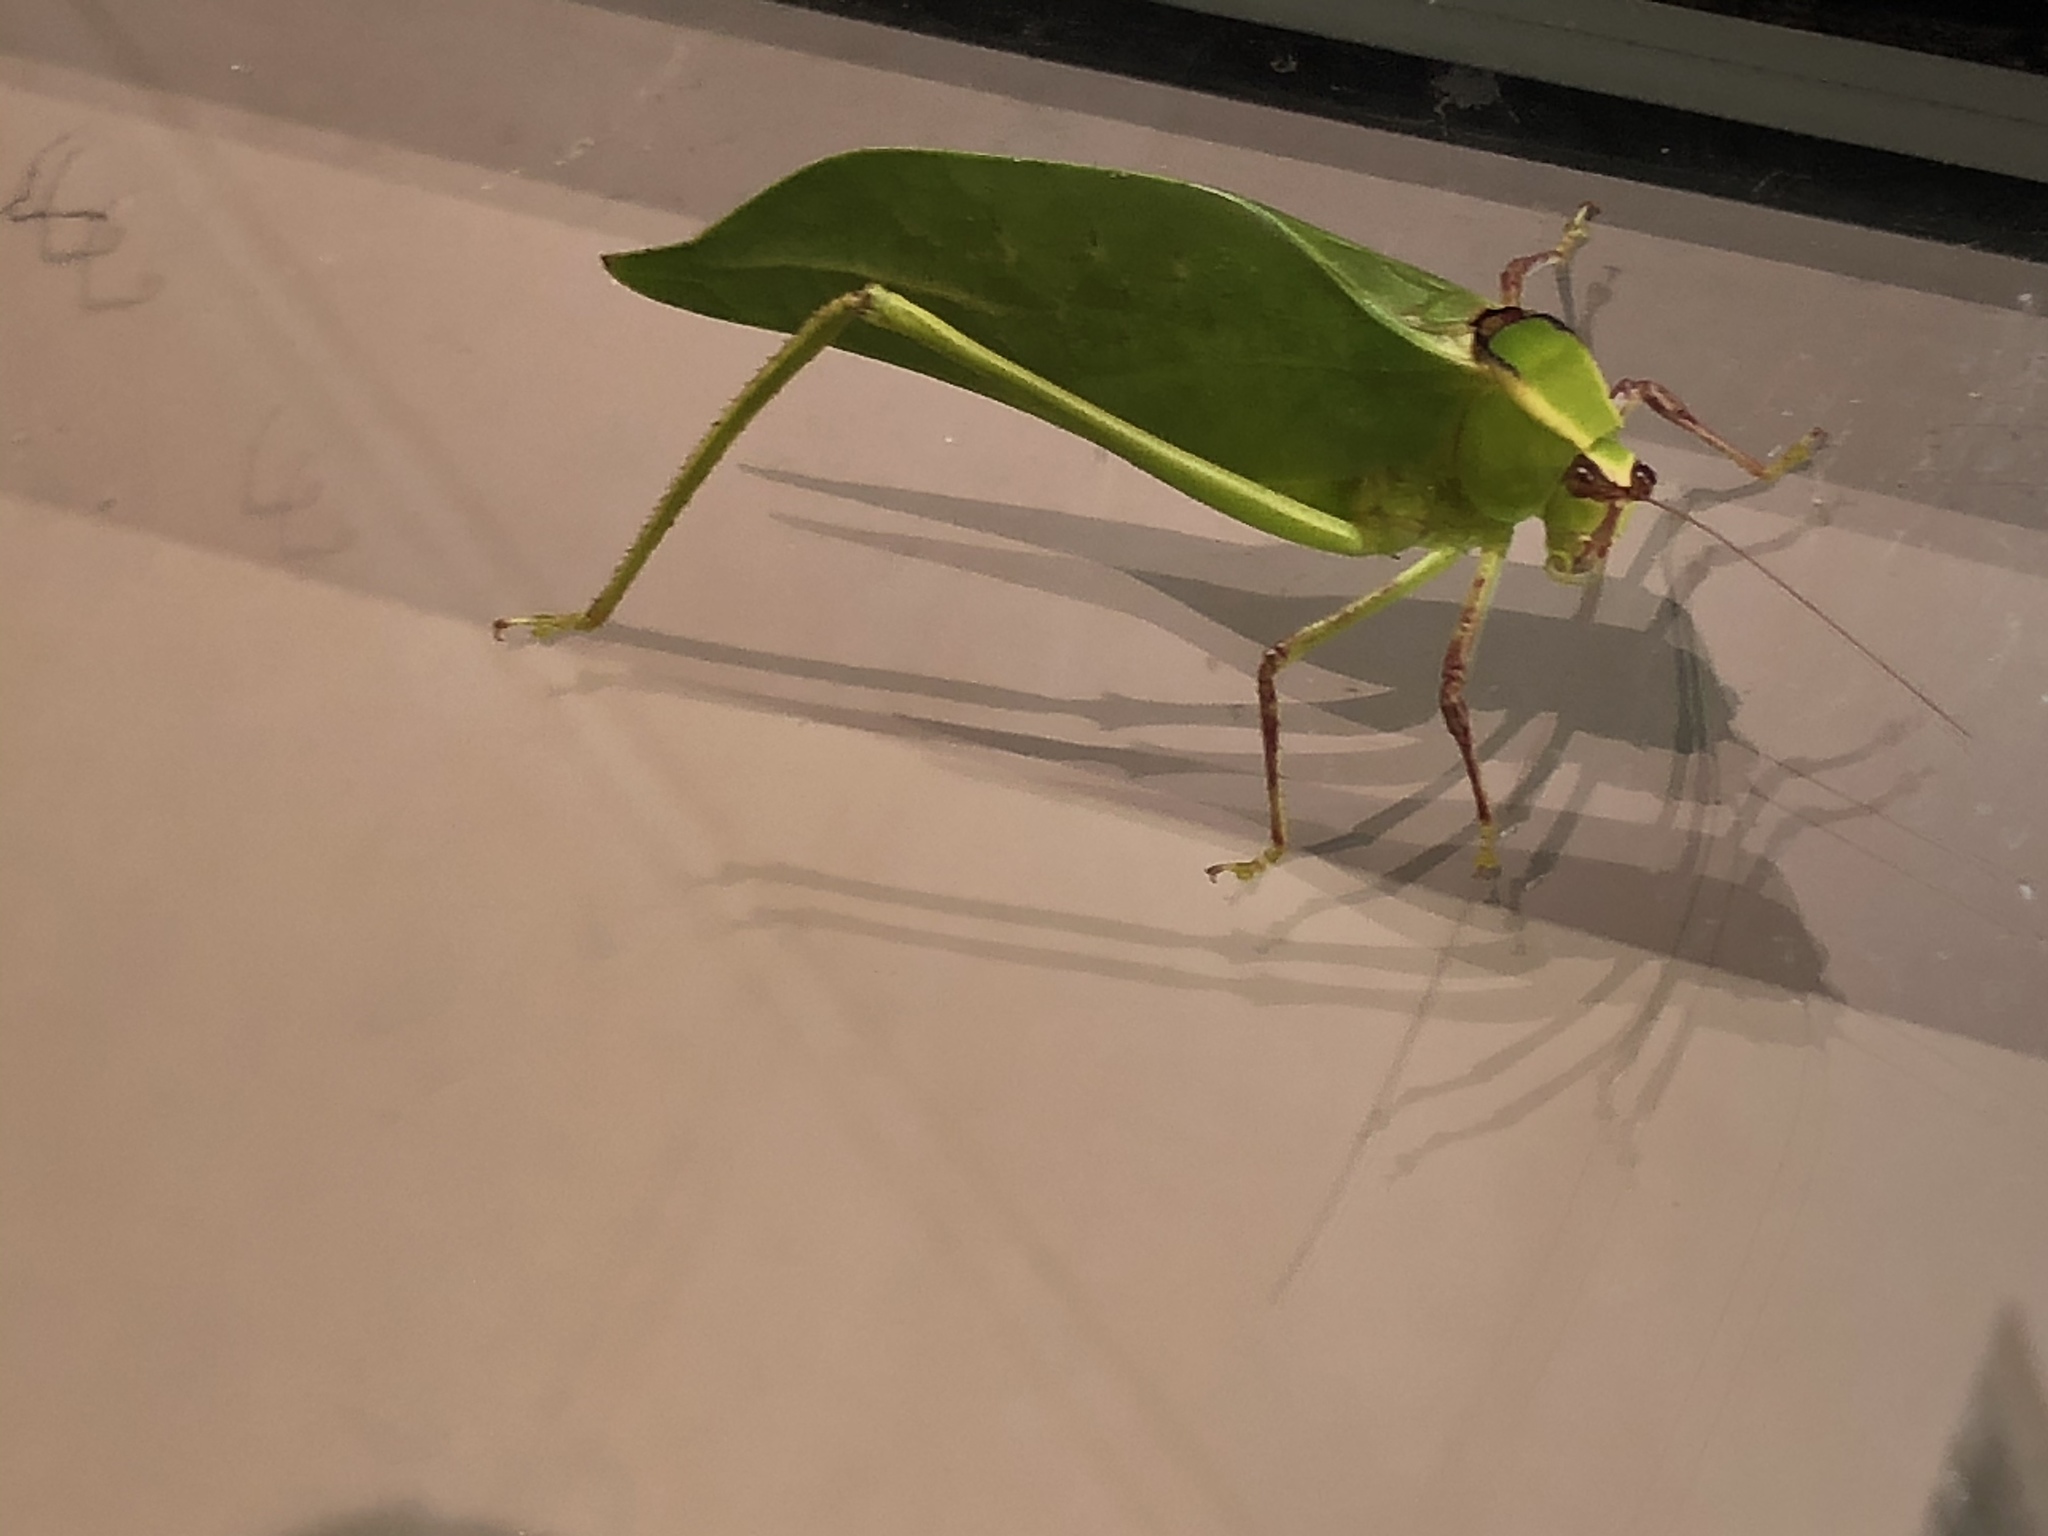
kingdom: Animalia
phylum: Arthropoda
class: Insecta
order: Orthoptera
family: Tettigoniidae
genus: Stilpnochlora
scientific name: Stilpnochlora couloniana
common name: Giant katydid
